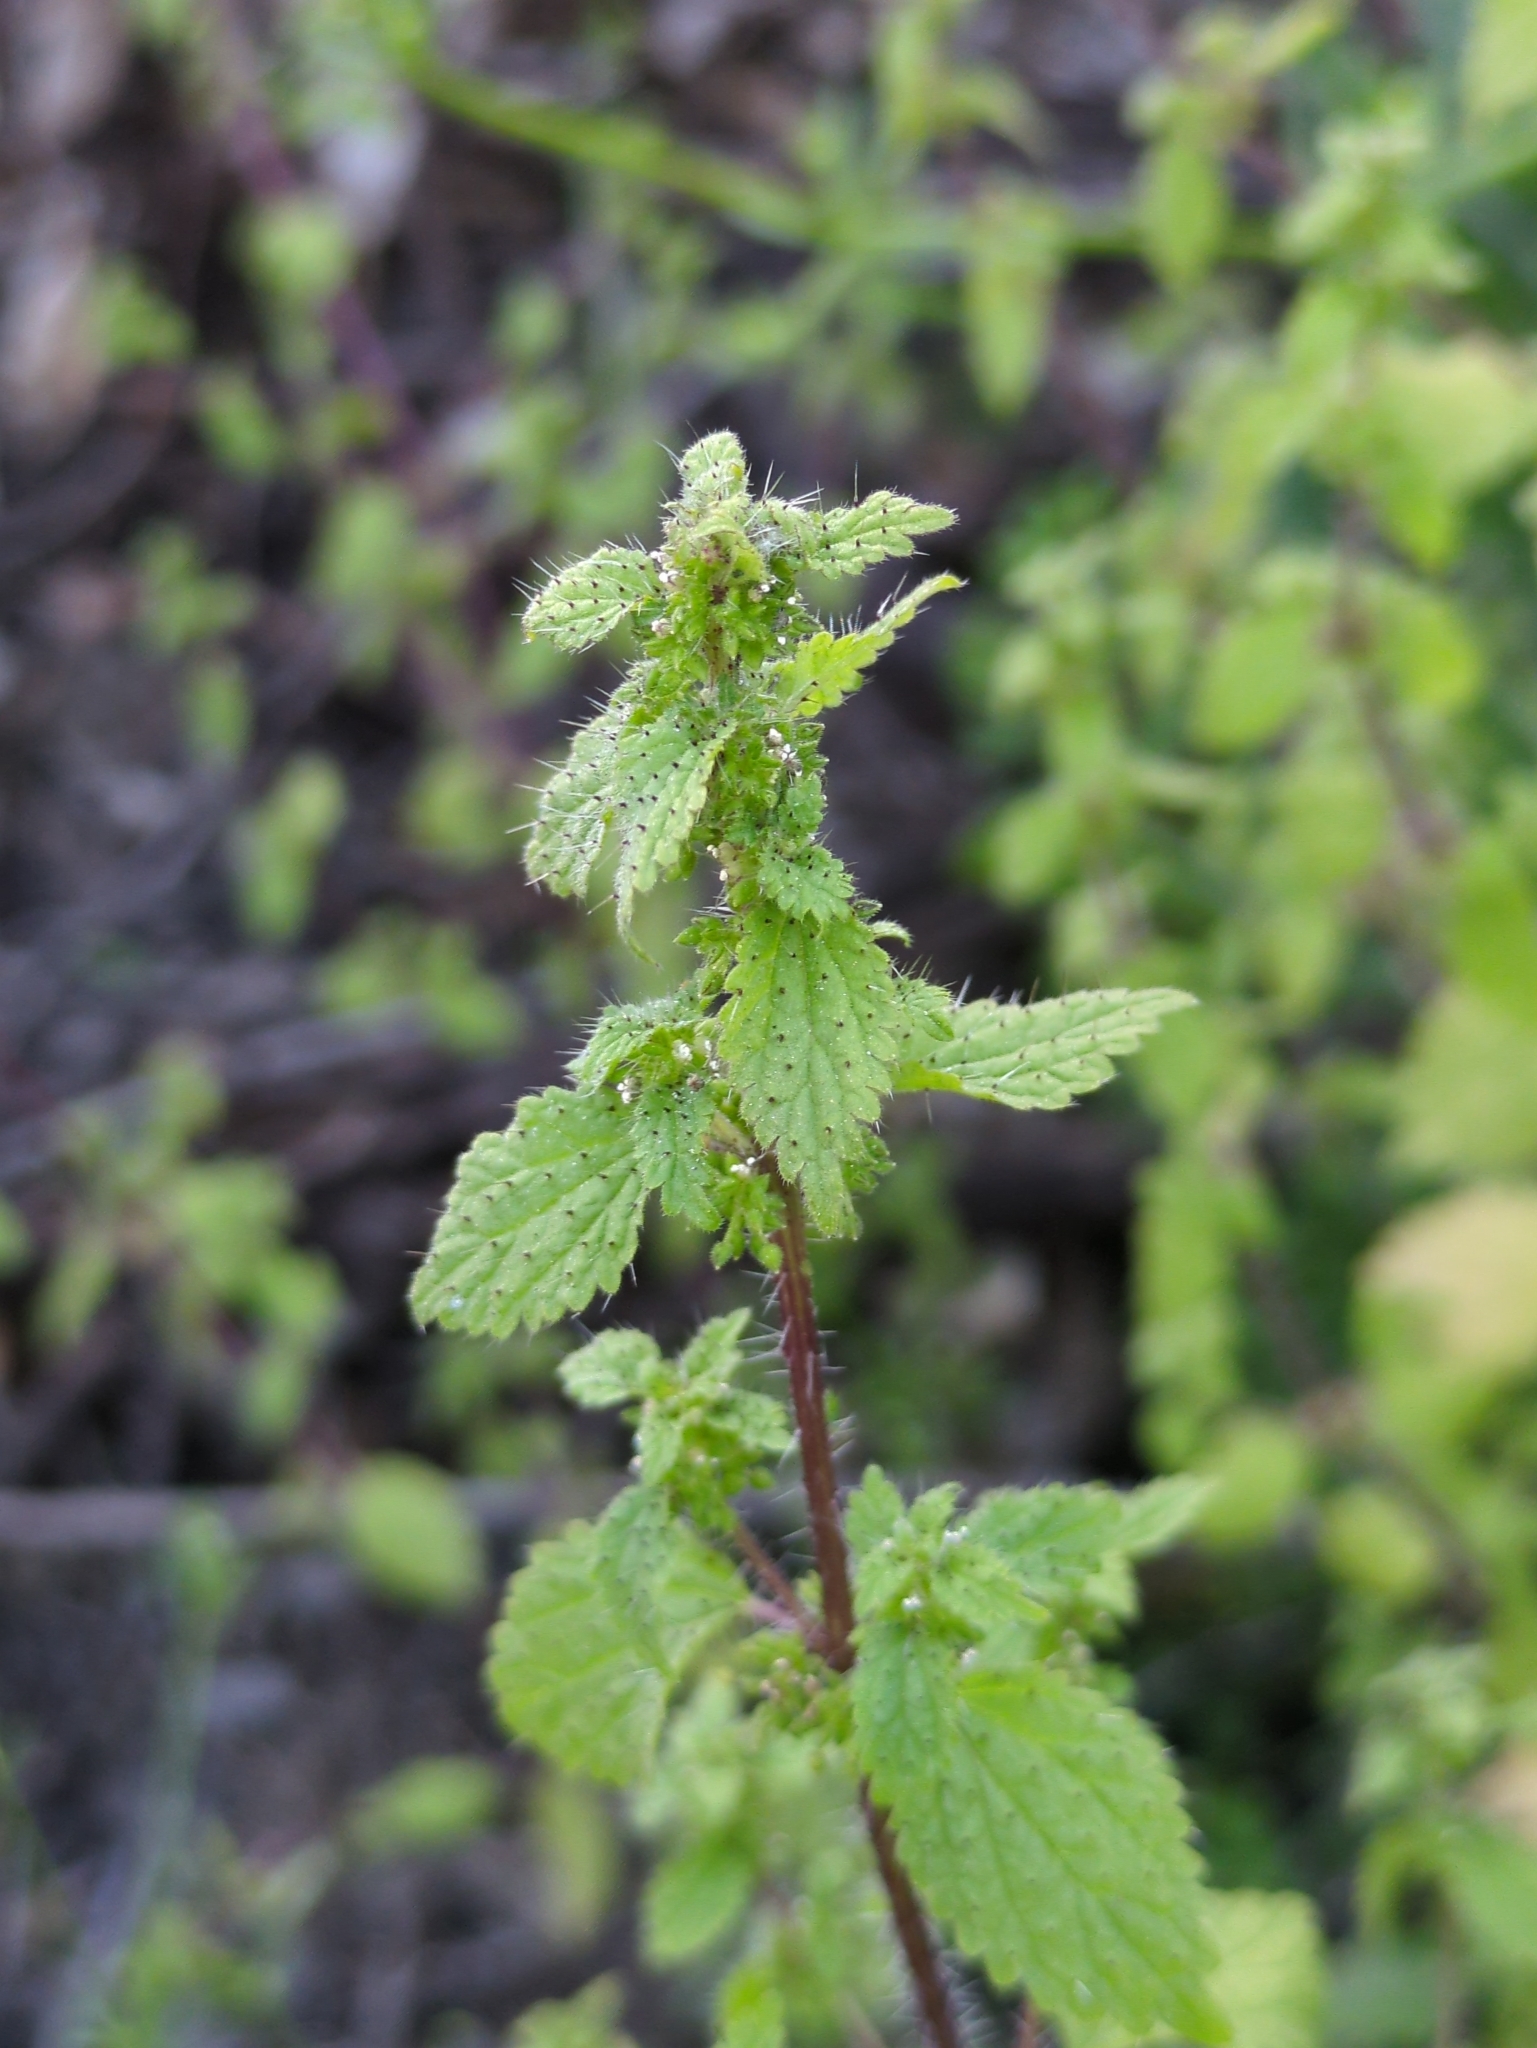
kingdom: Plantae
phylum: Tracheophyta
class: Magnoliopsida
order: Rosales
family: Urticaceae
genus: Hesperocnide
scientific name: Hesperocnide tenella
